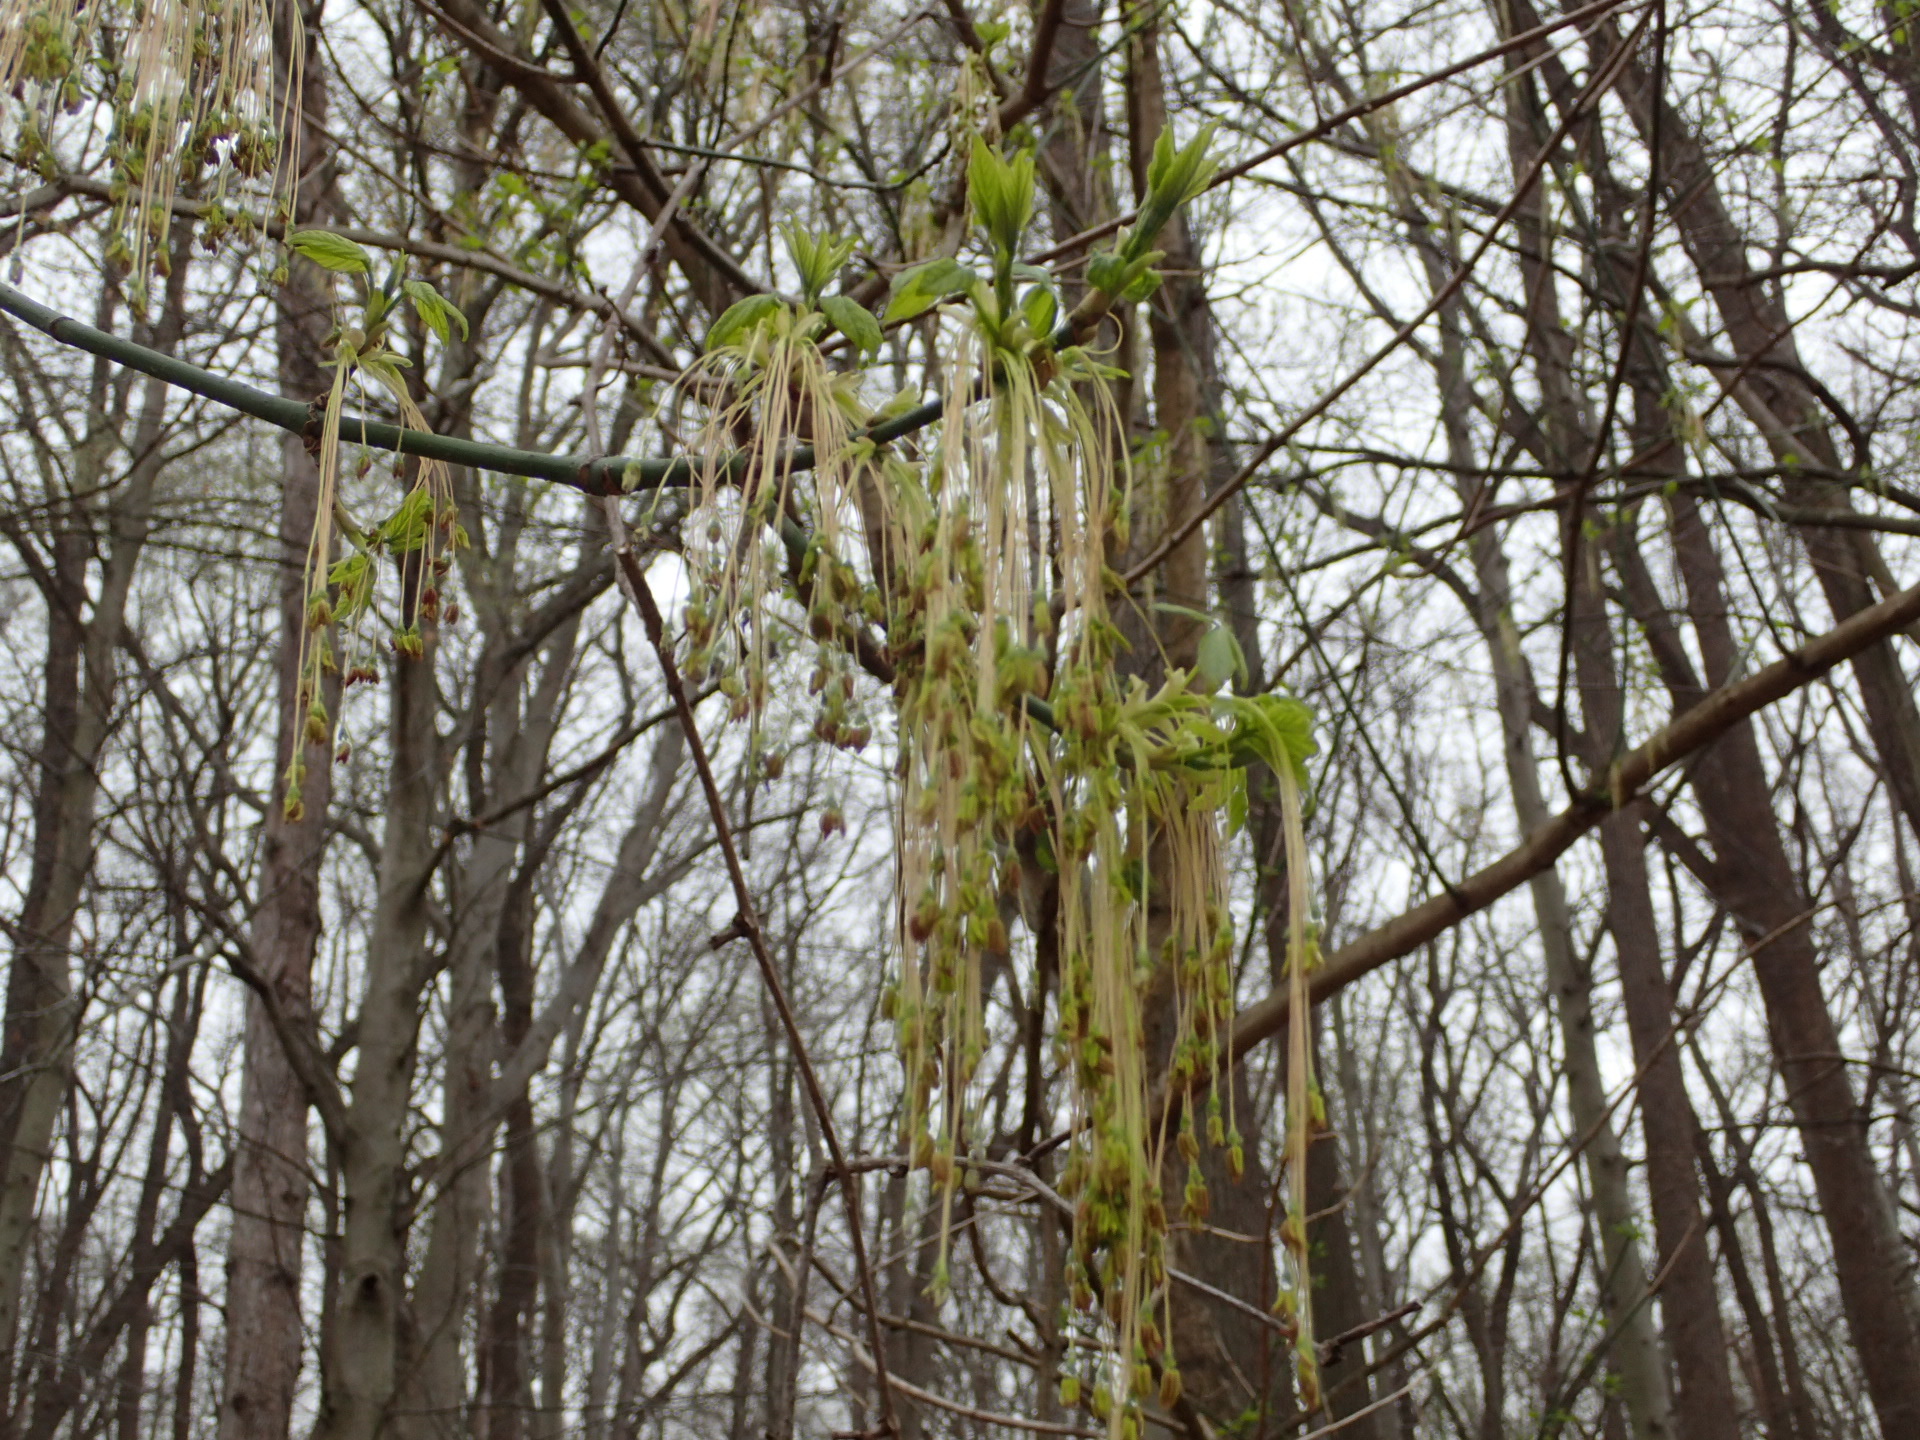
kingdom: Plantae
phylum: Tracheophyta
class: Magnoliopsida
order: Sapindales
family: Sapindaceae
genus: Acer
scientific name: Acer negundo
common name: Ashleaf maple
